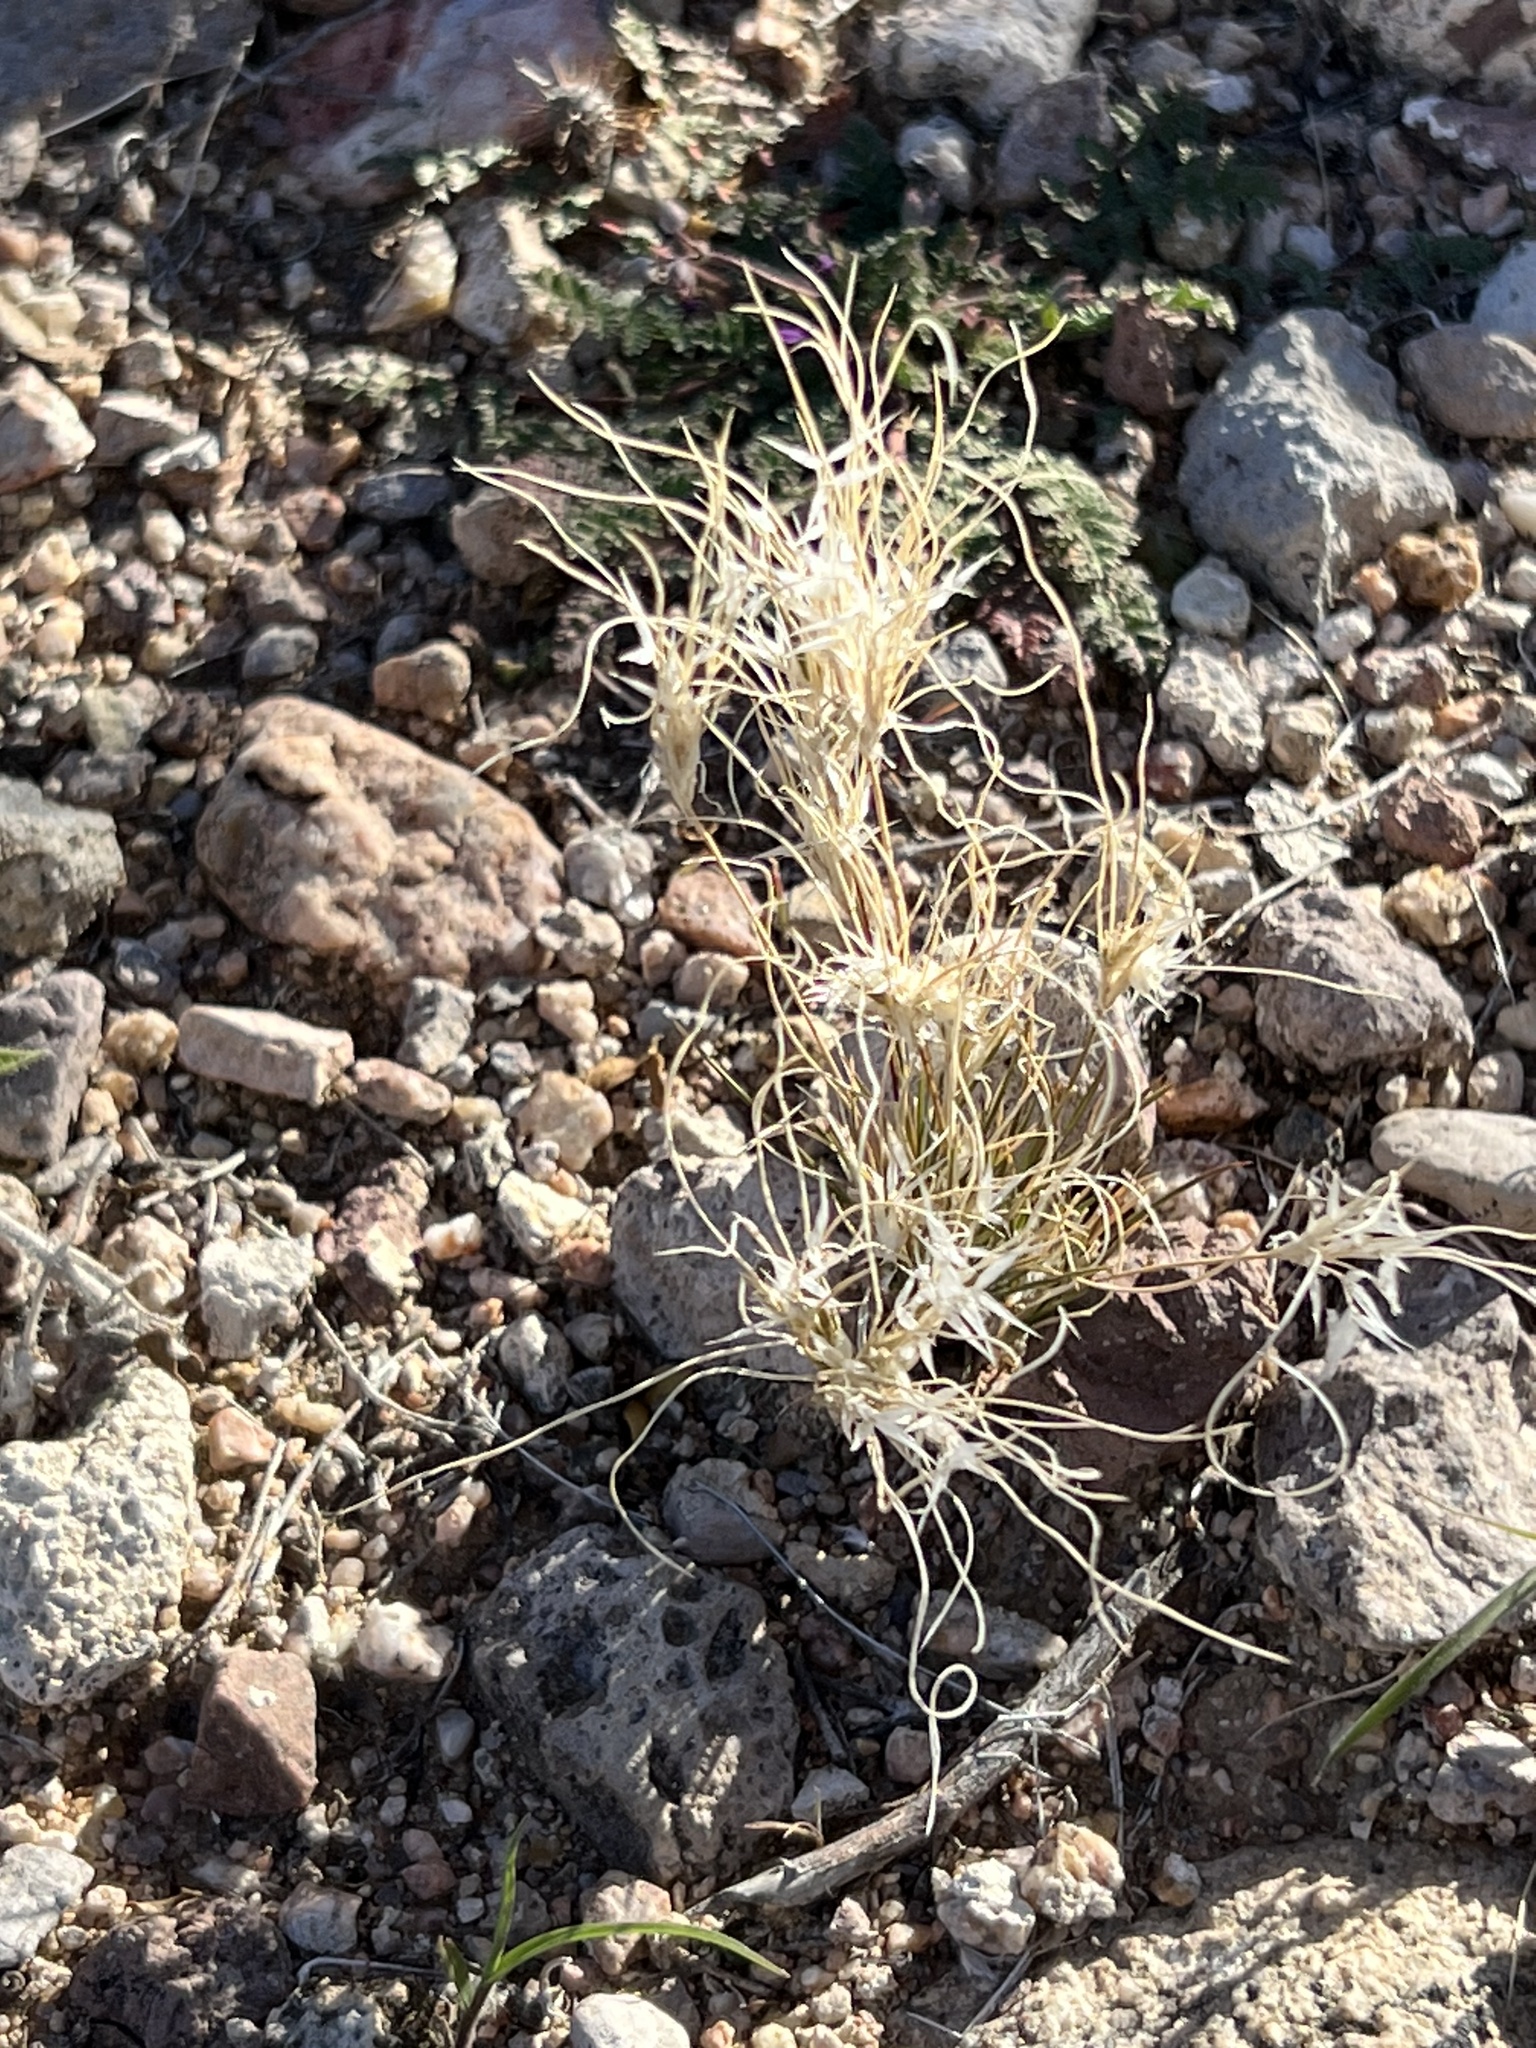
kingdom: Plantae
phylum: Tracheophyta
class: Liliopsida
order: Poales
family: Poaceae
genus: Dasyochloa
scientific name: Dasyochloa pulchella
